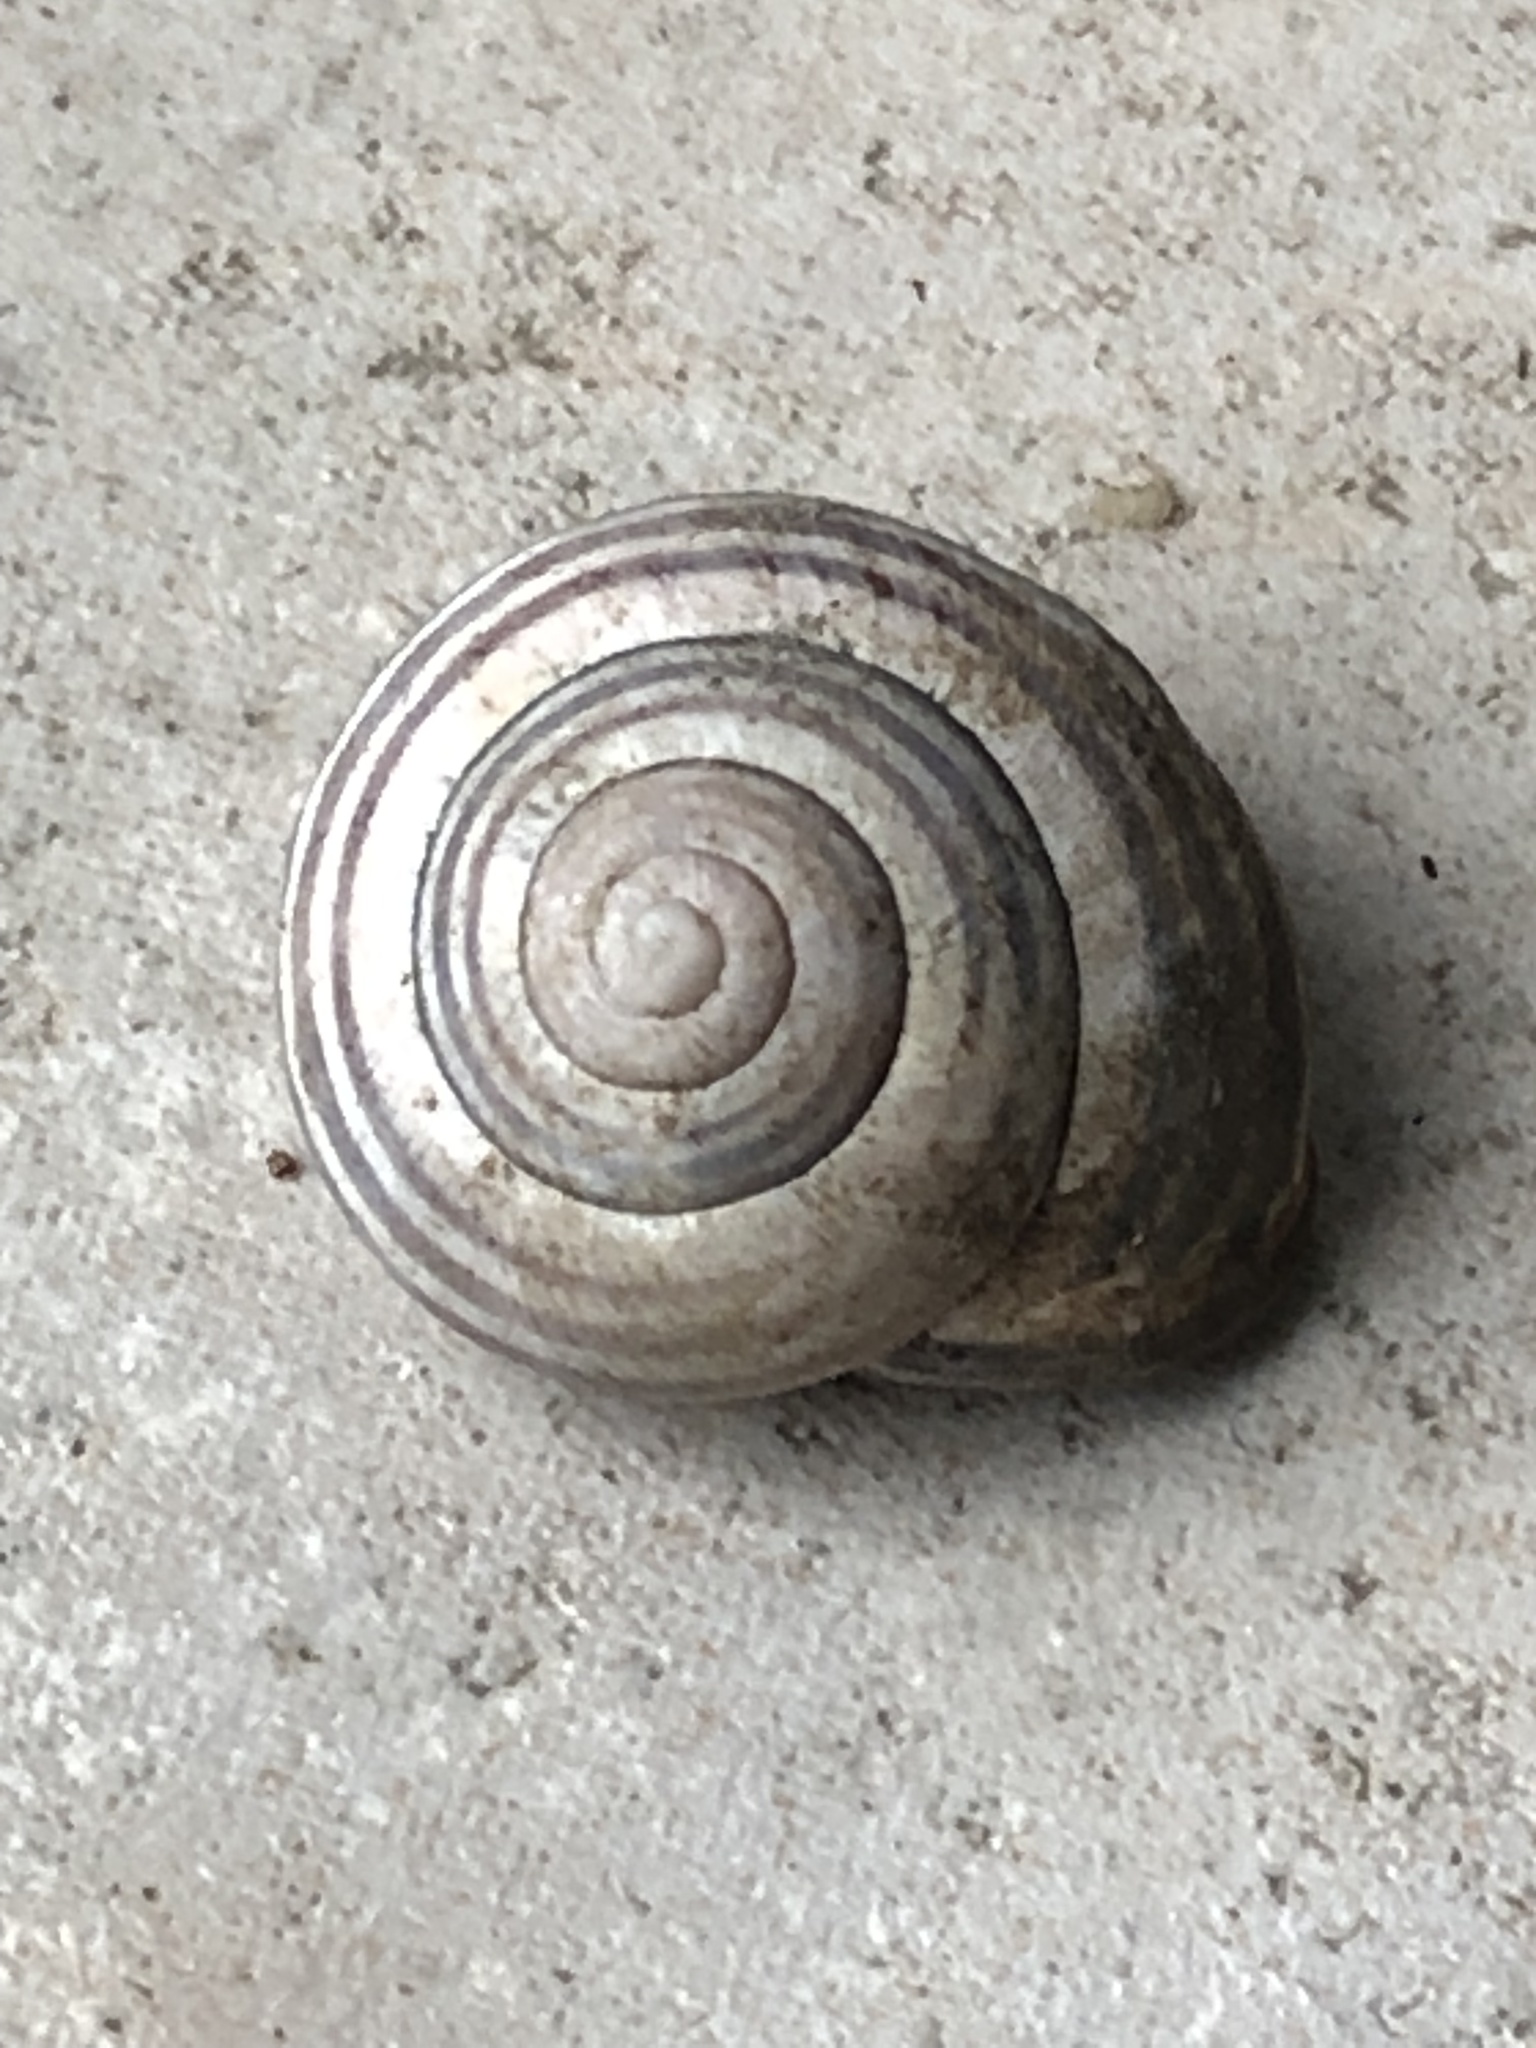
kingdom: Animalia
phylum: Mollusca
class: Gastropoda
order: Stylommatophora
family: Helicidae
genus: Cepaea
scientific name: Cepaea nemoralis
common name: Grovesnail
